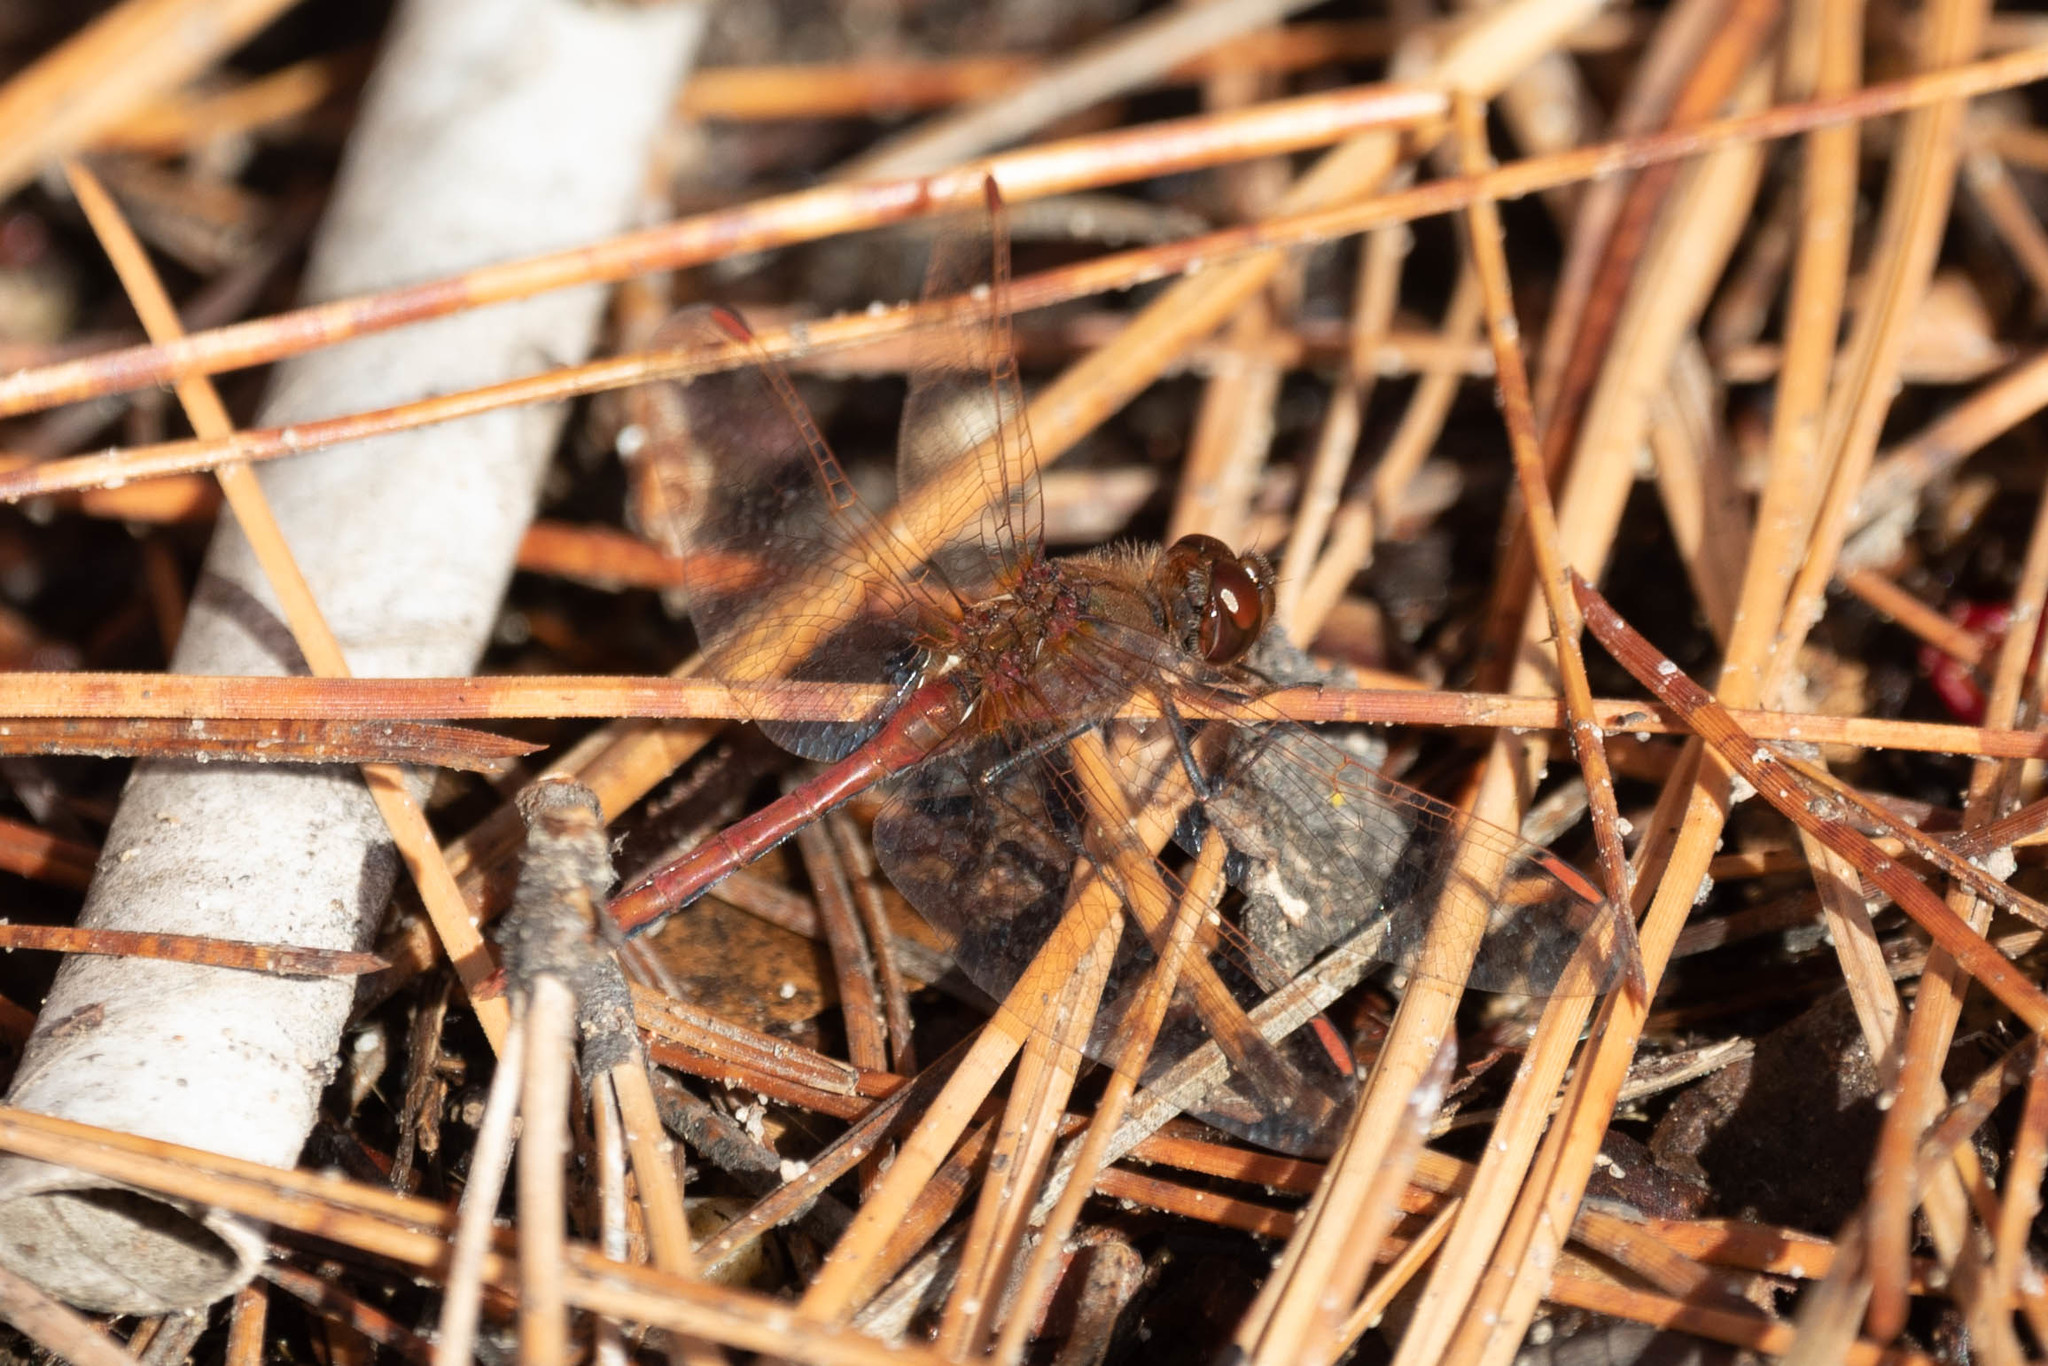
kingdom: Animalia
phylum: Arthropoda
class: Insecta
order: Odonata
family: Libellulidae
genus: Sympetrum
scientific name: Sympetrum costiferum
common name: Saffron-winged meadowhawk
